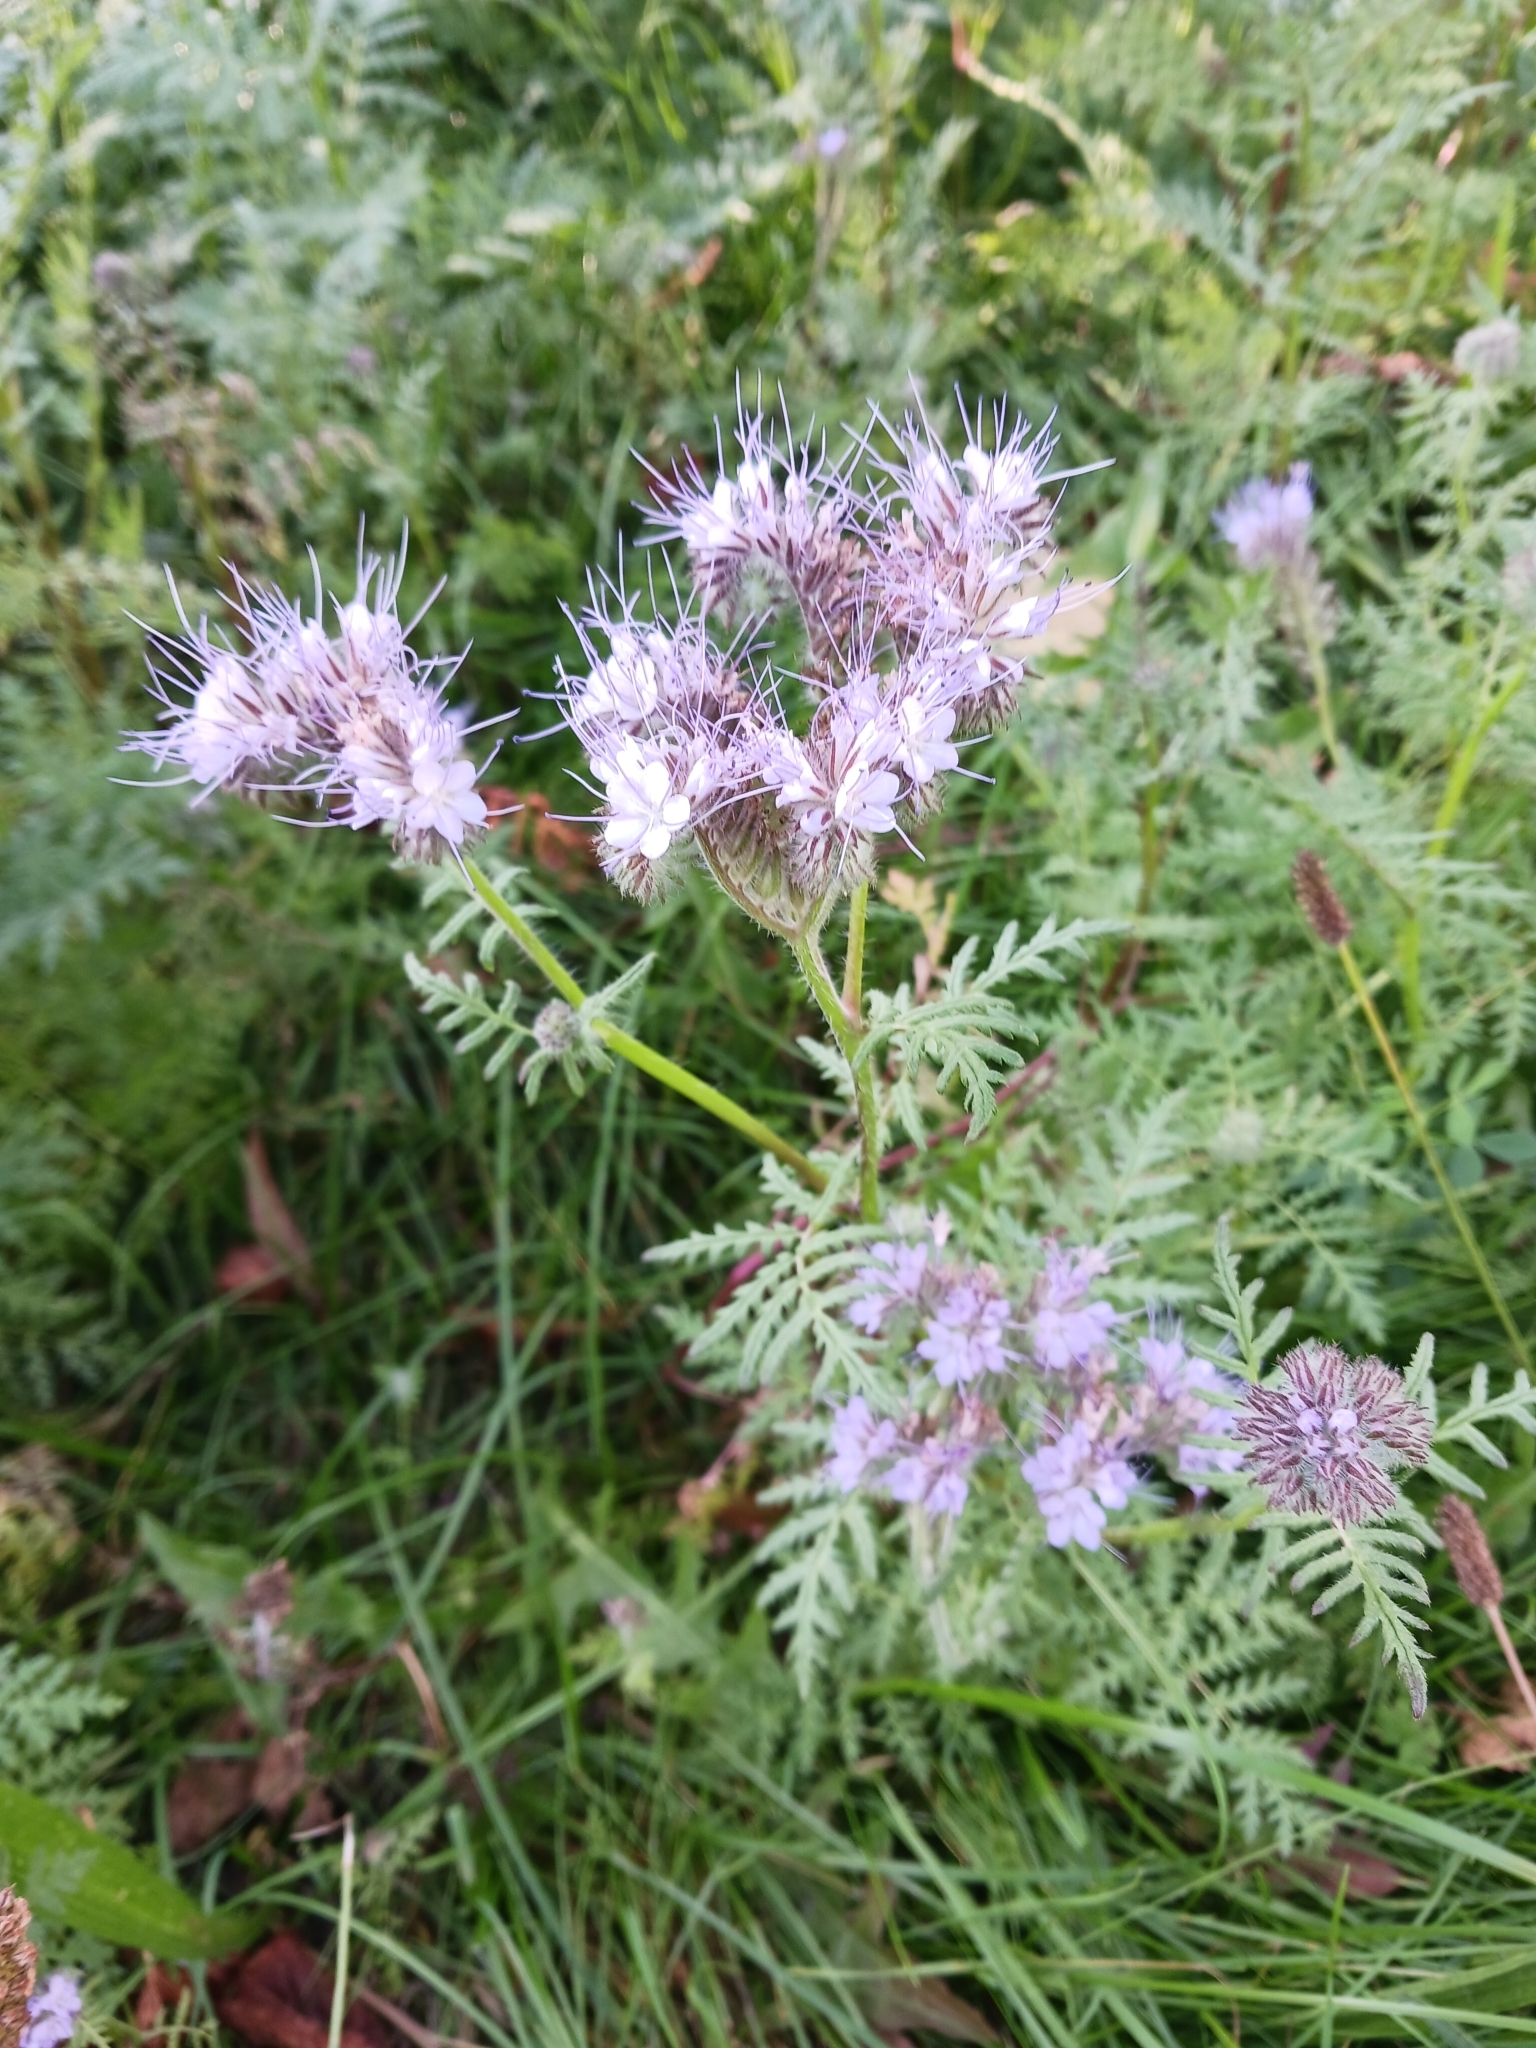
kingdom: Plantae
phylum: Tracheophyta
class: Magnoliopsida
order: Boraginales
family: Hydrophyllaceae
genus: Phacelia
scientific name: Phacelia tanacetifolia
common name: Phacelia
